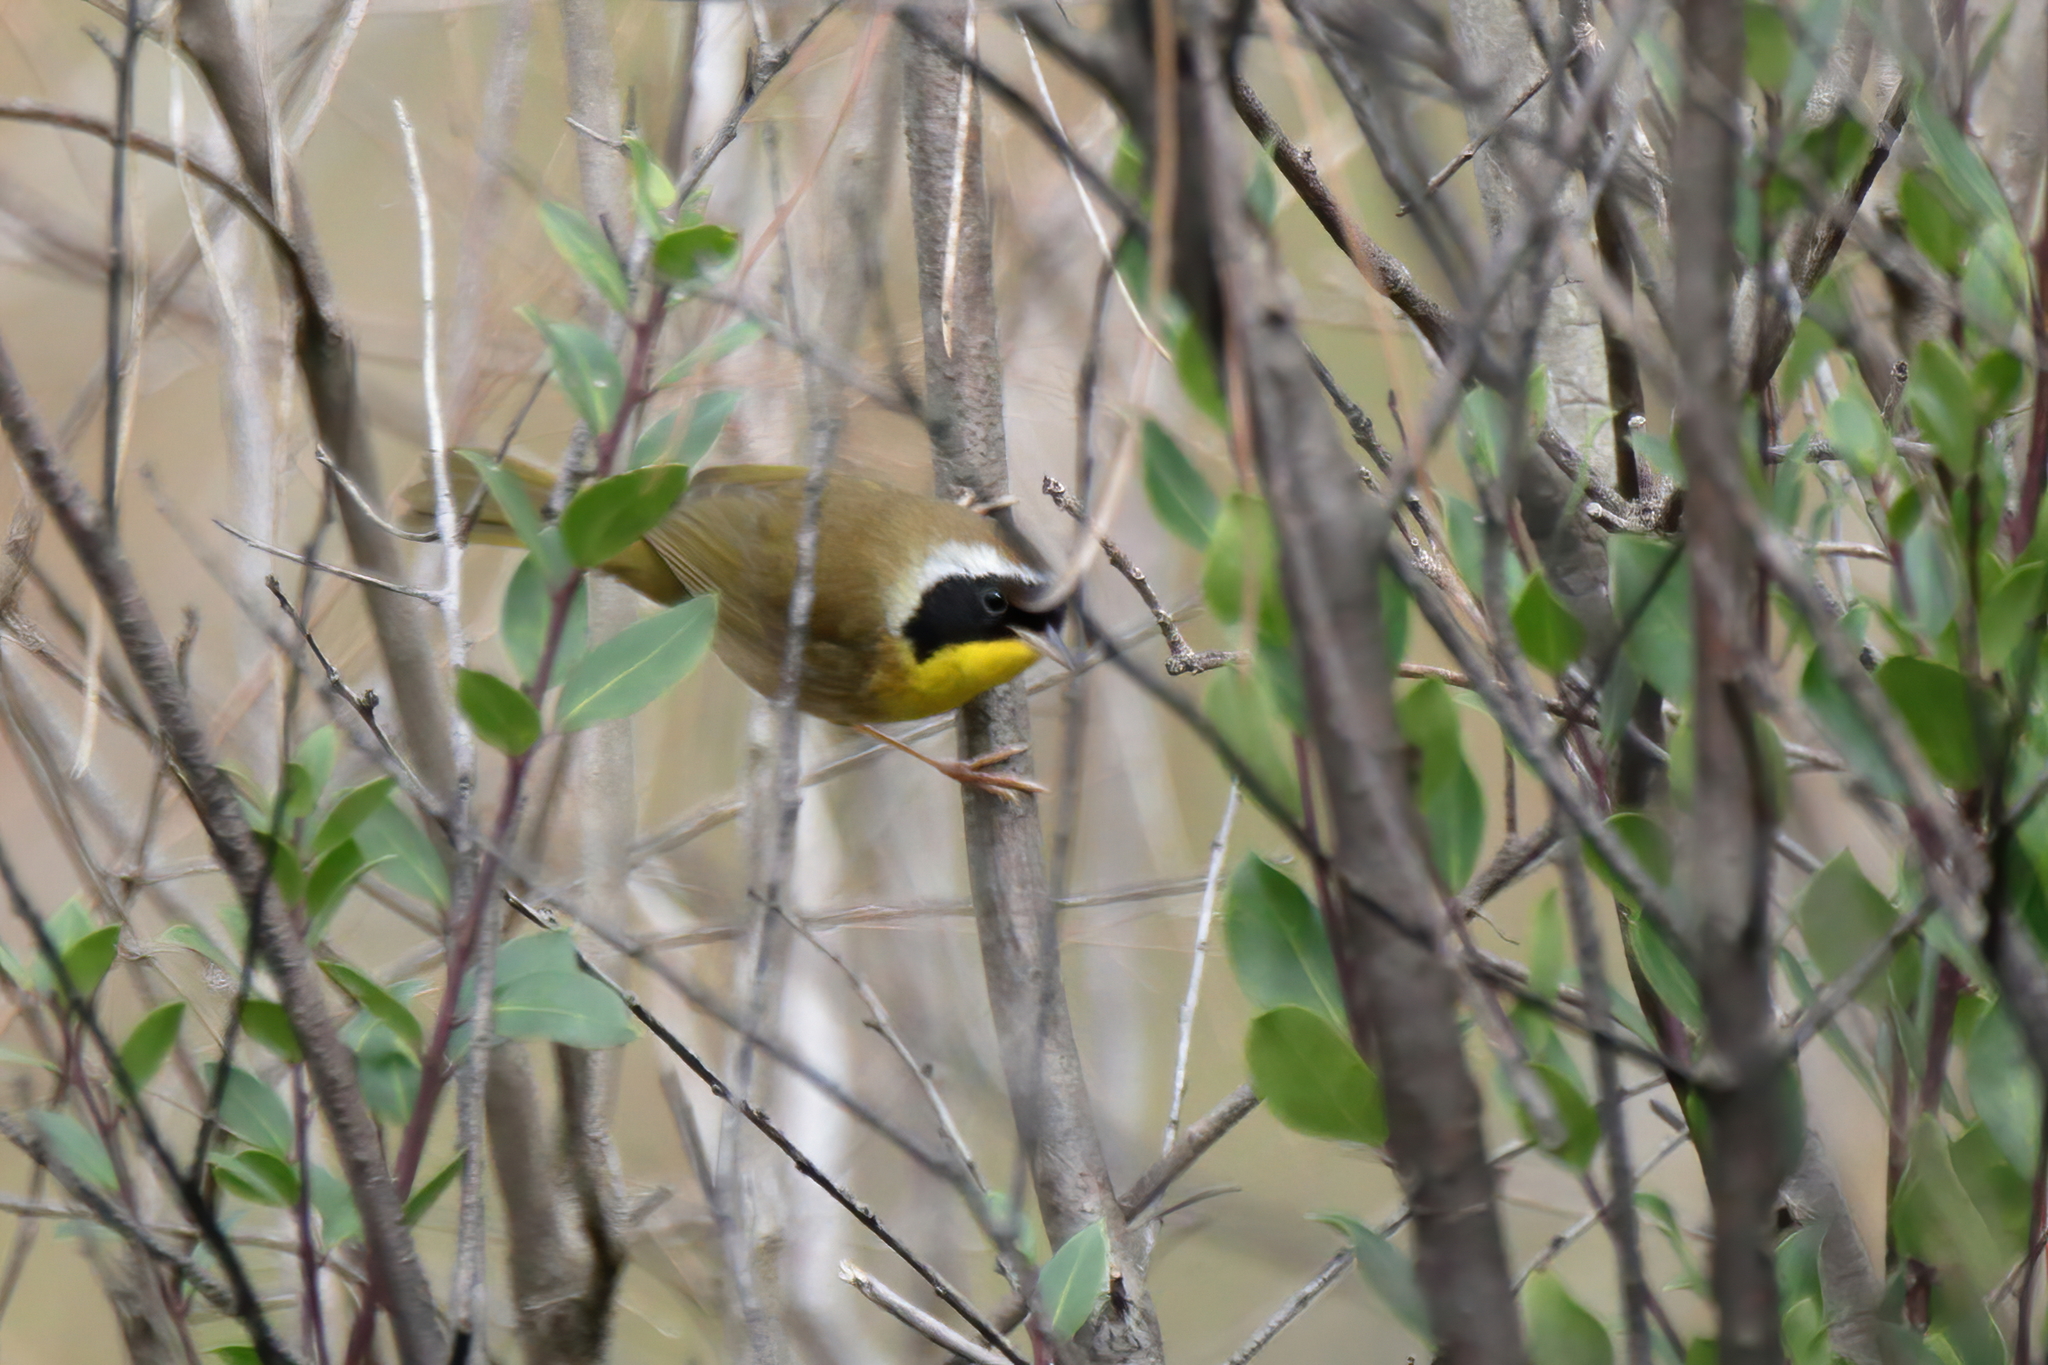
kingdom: Animalia
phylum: Chordata
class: Aves
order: Passeriformes
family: Parulidae
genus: Geothlypis
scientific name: Geothlypis trichas
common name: Common yellowthroat
